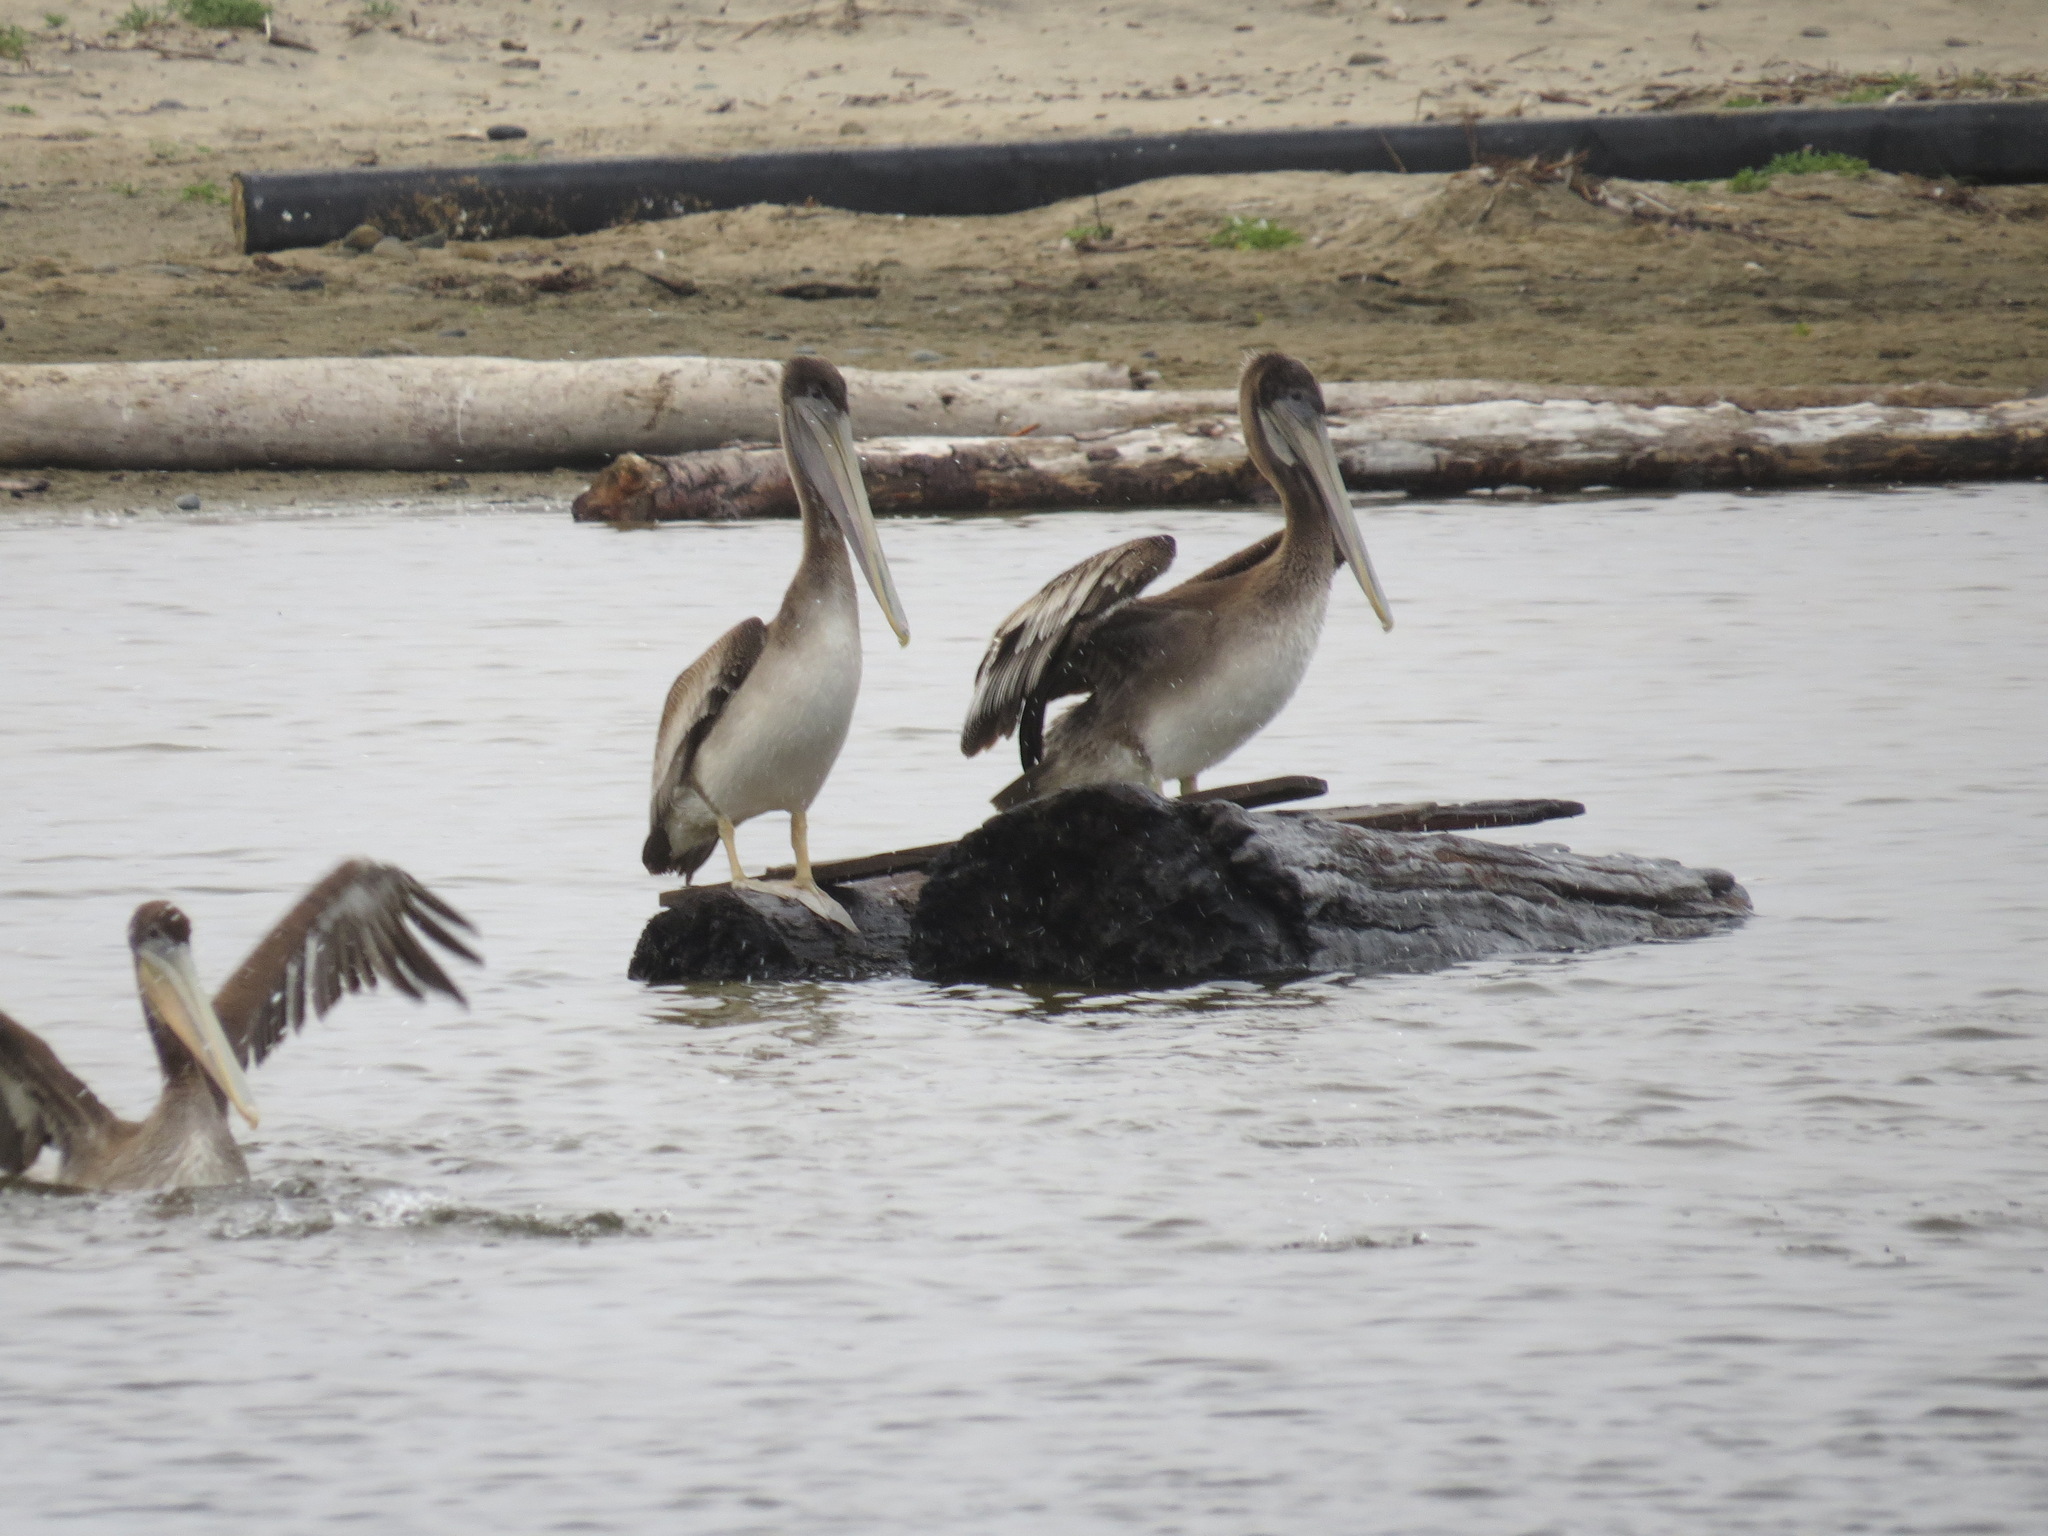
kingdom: Animalia
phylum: Chordata
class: Aves
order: Pelecaniformes
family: Pelecanidae
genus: Pelecanus
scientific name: Pelecanus occidentalis
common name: Brown pelican
